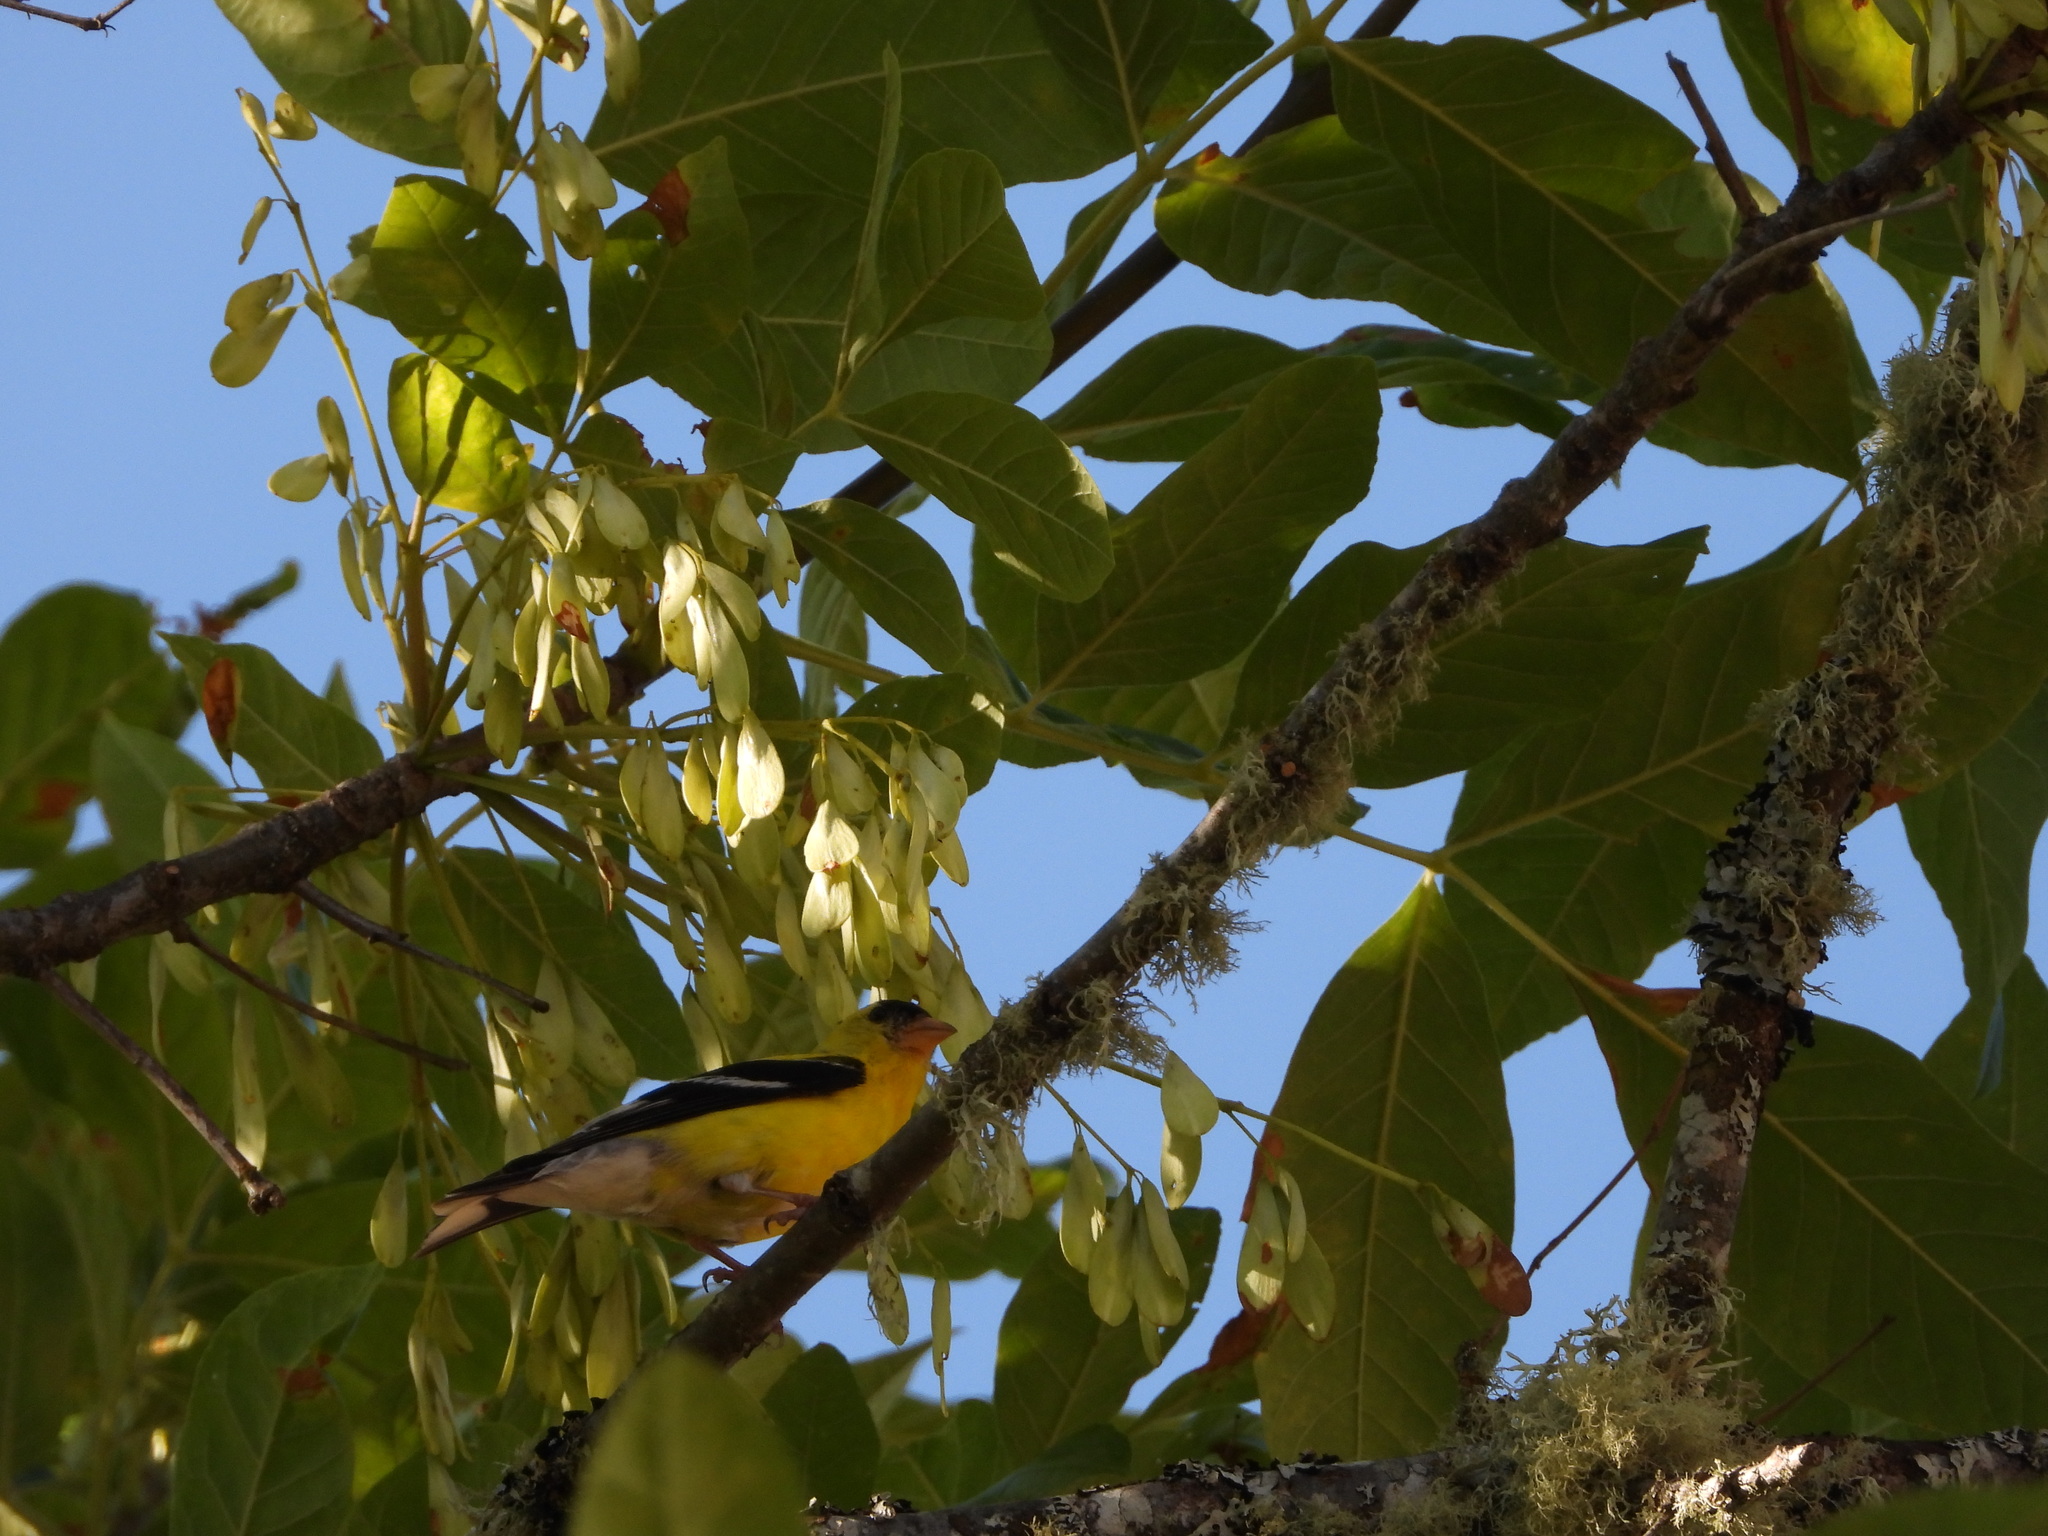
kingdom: Animalia
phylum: Chordata
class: Aves
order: Passeriformes
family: Fringillidae
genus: Spinus
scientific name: Spinus tristis
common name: American goldfinch
